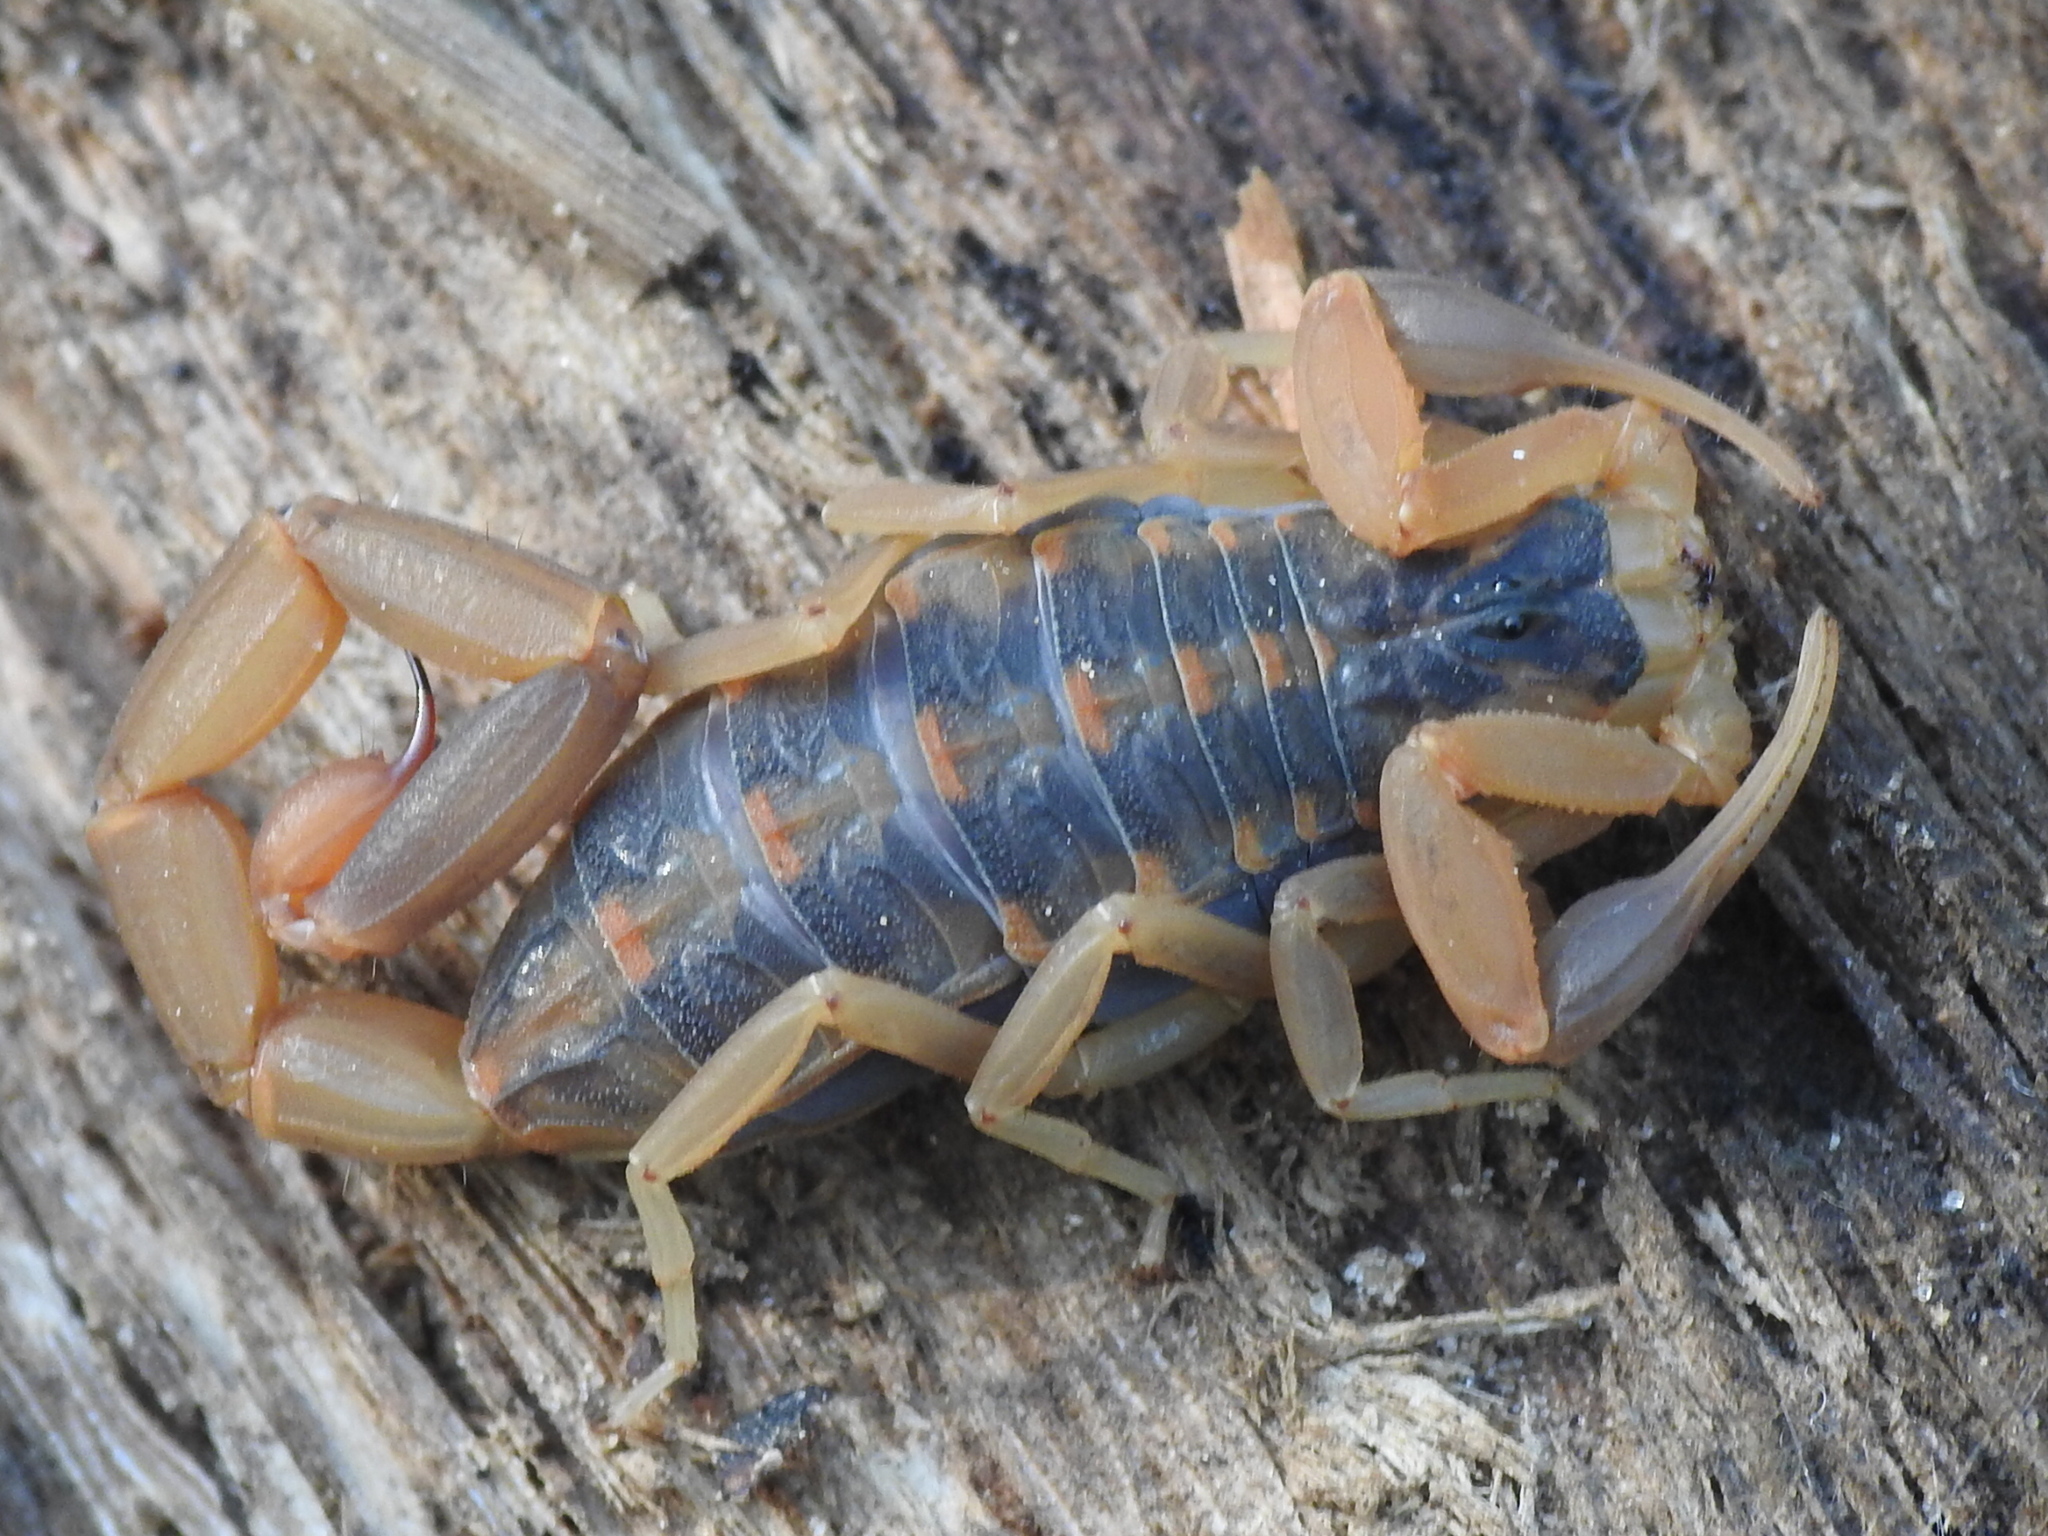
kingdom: Animalia
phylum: Arthropoda
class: Arachnida
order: Scorpiones
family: Buthidae
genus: Centruroides
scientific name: Centruroides vittatus
